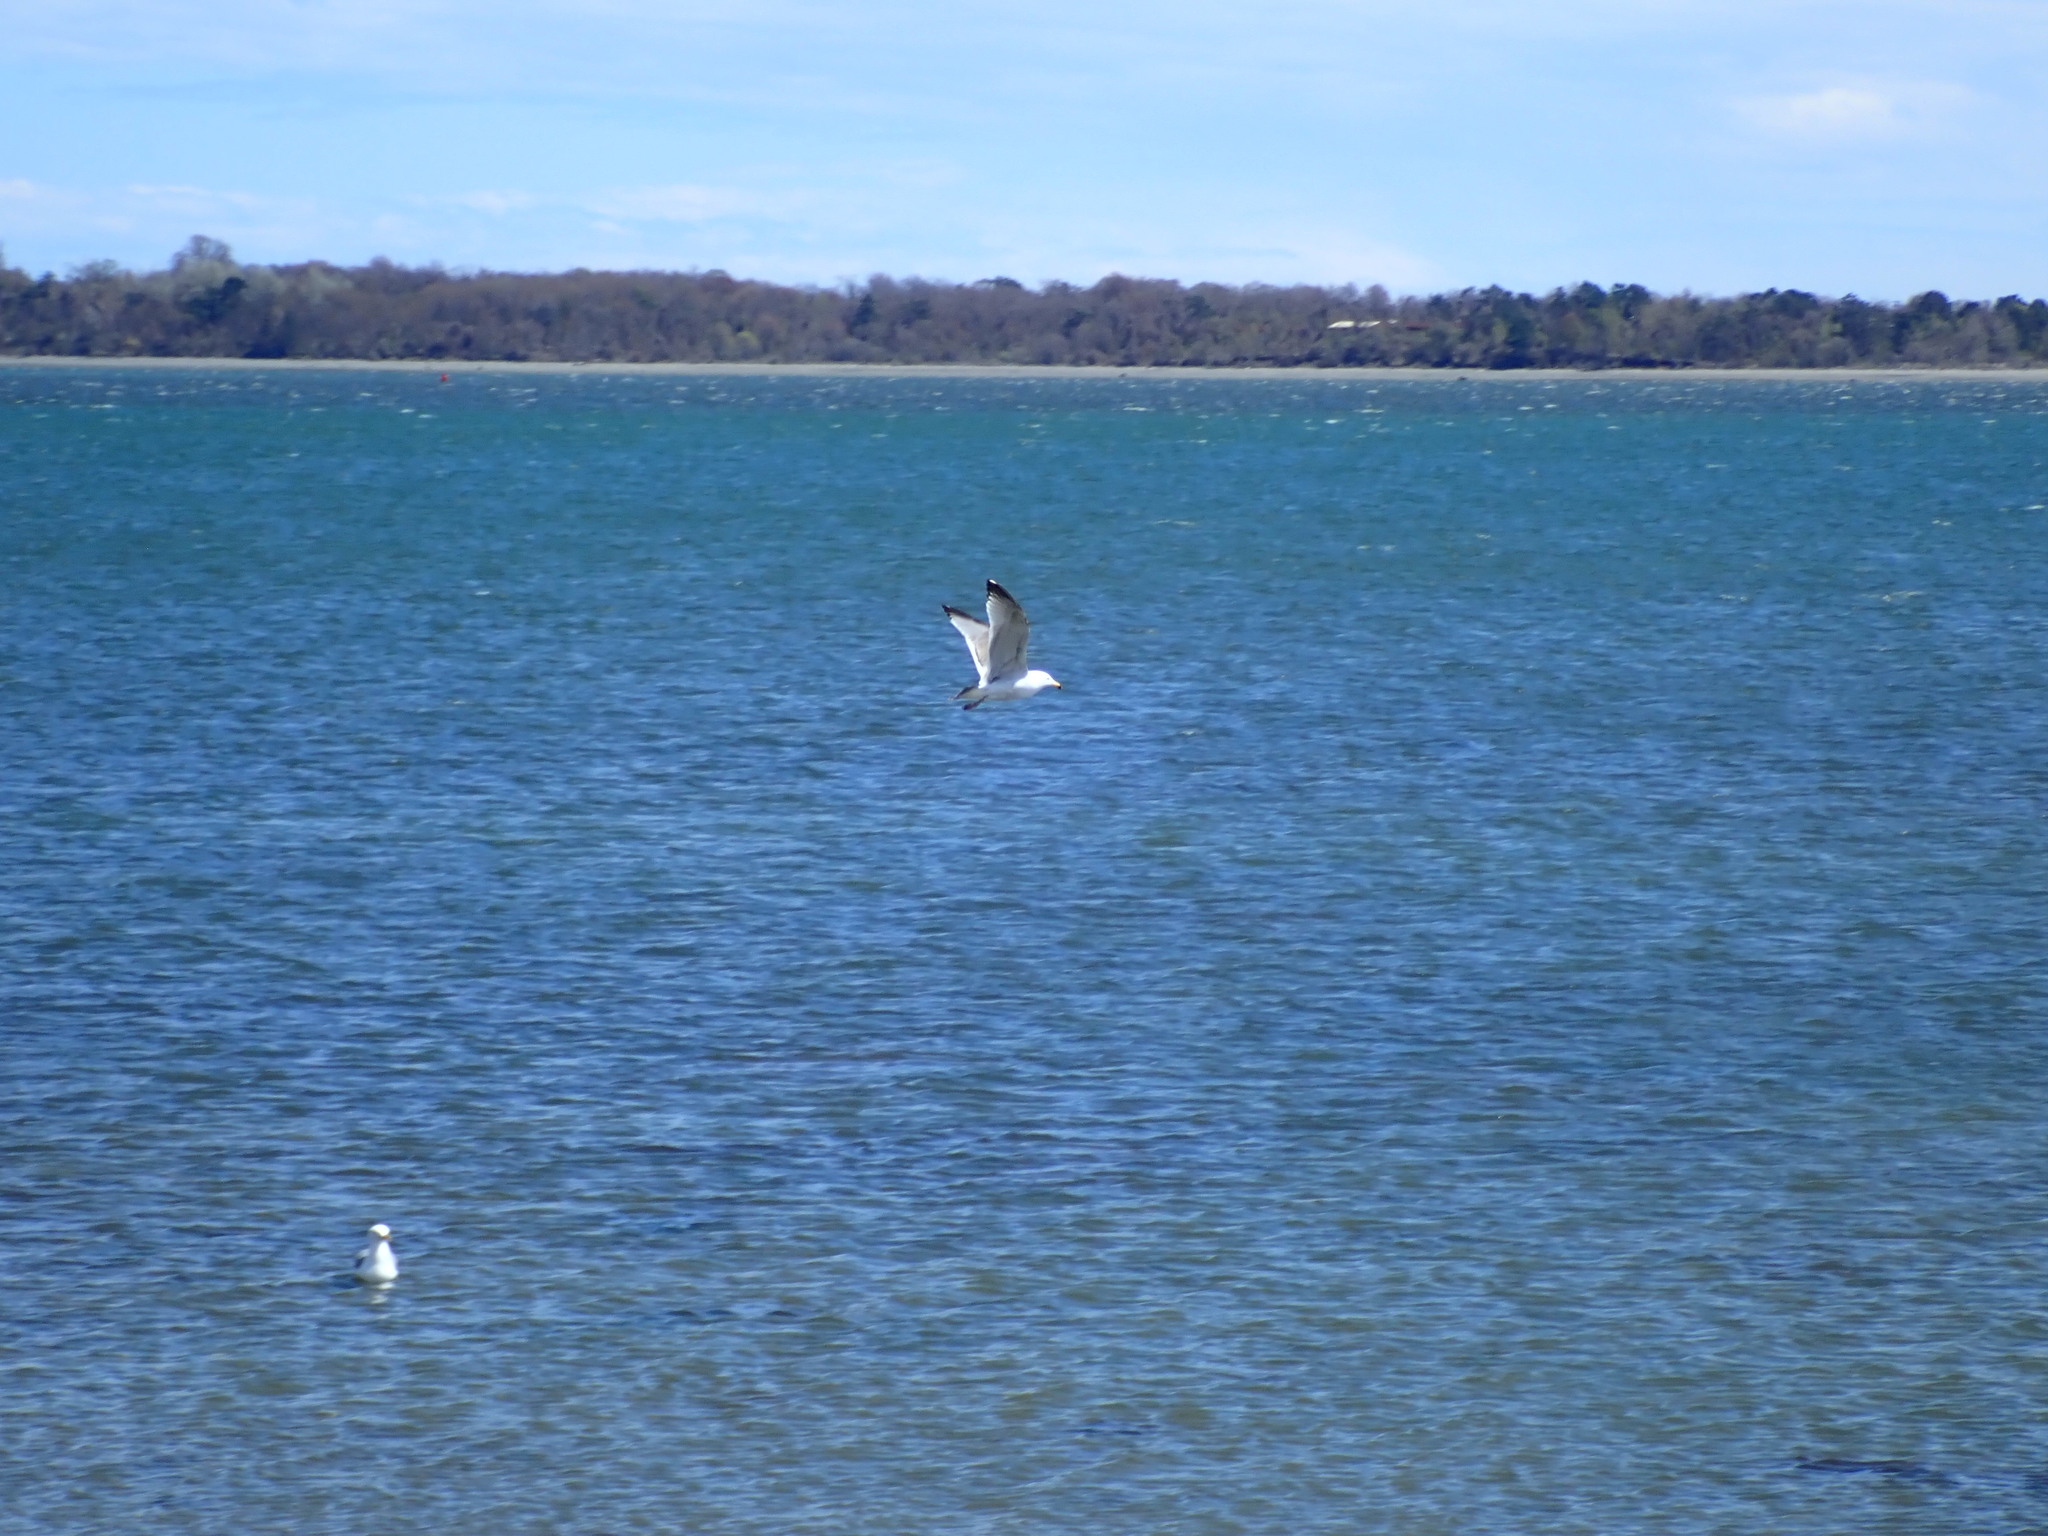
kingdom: Animalia
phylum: Chordata
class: Aves
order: Charadriiformes
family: Laridae
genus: Larus
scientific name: Larus delawarensis
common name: Ring-billed gull
